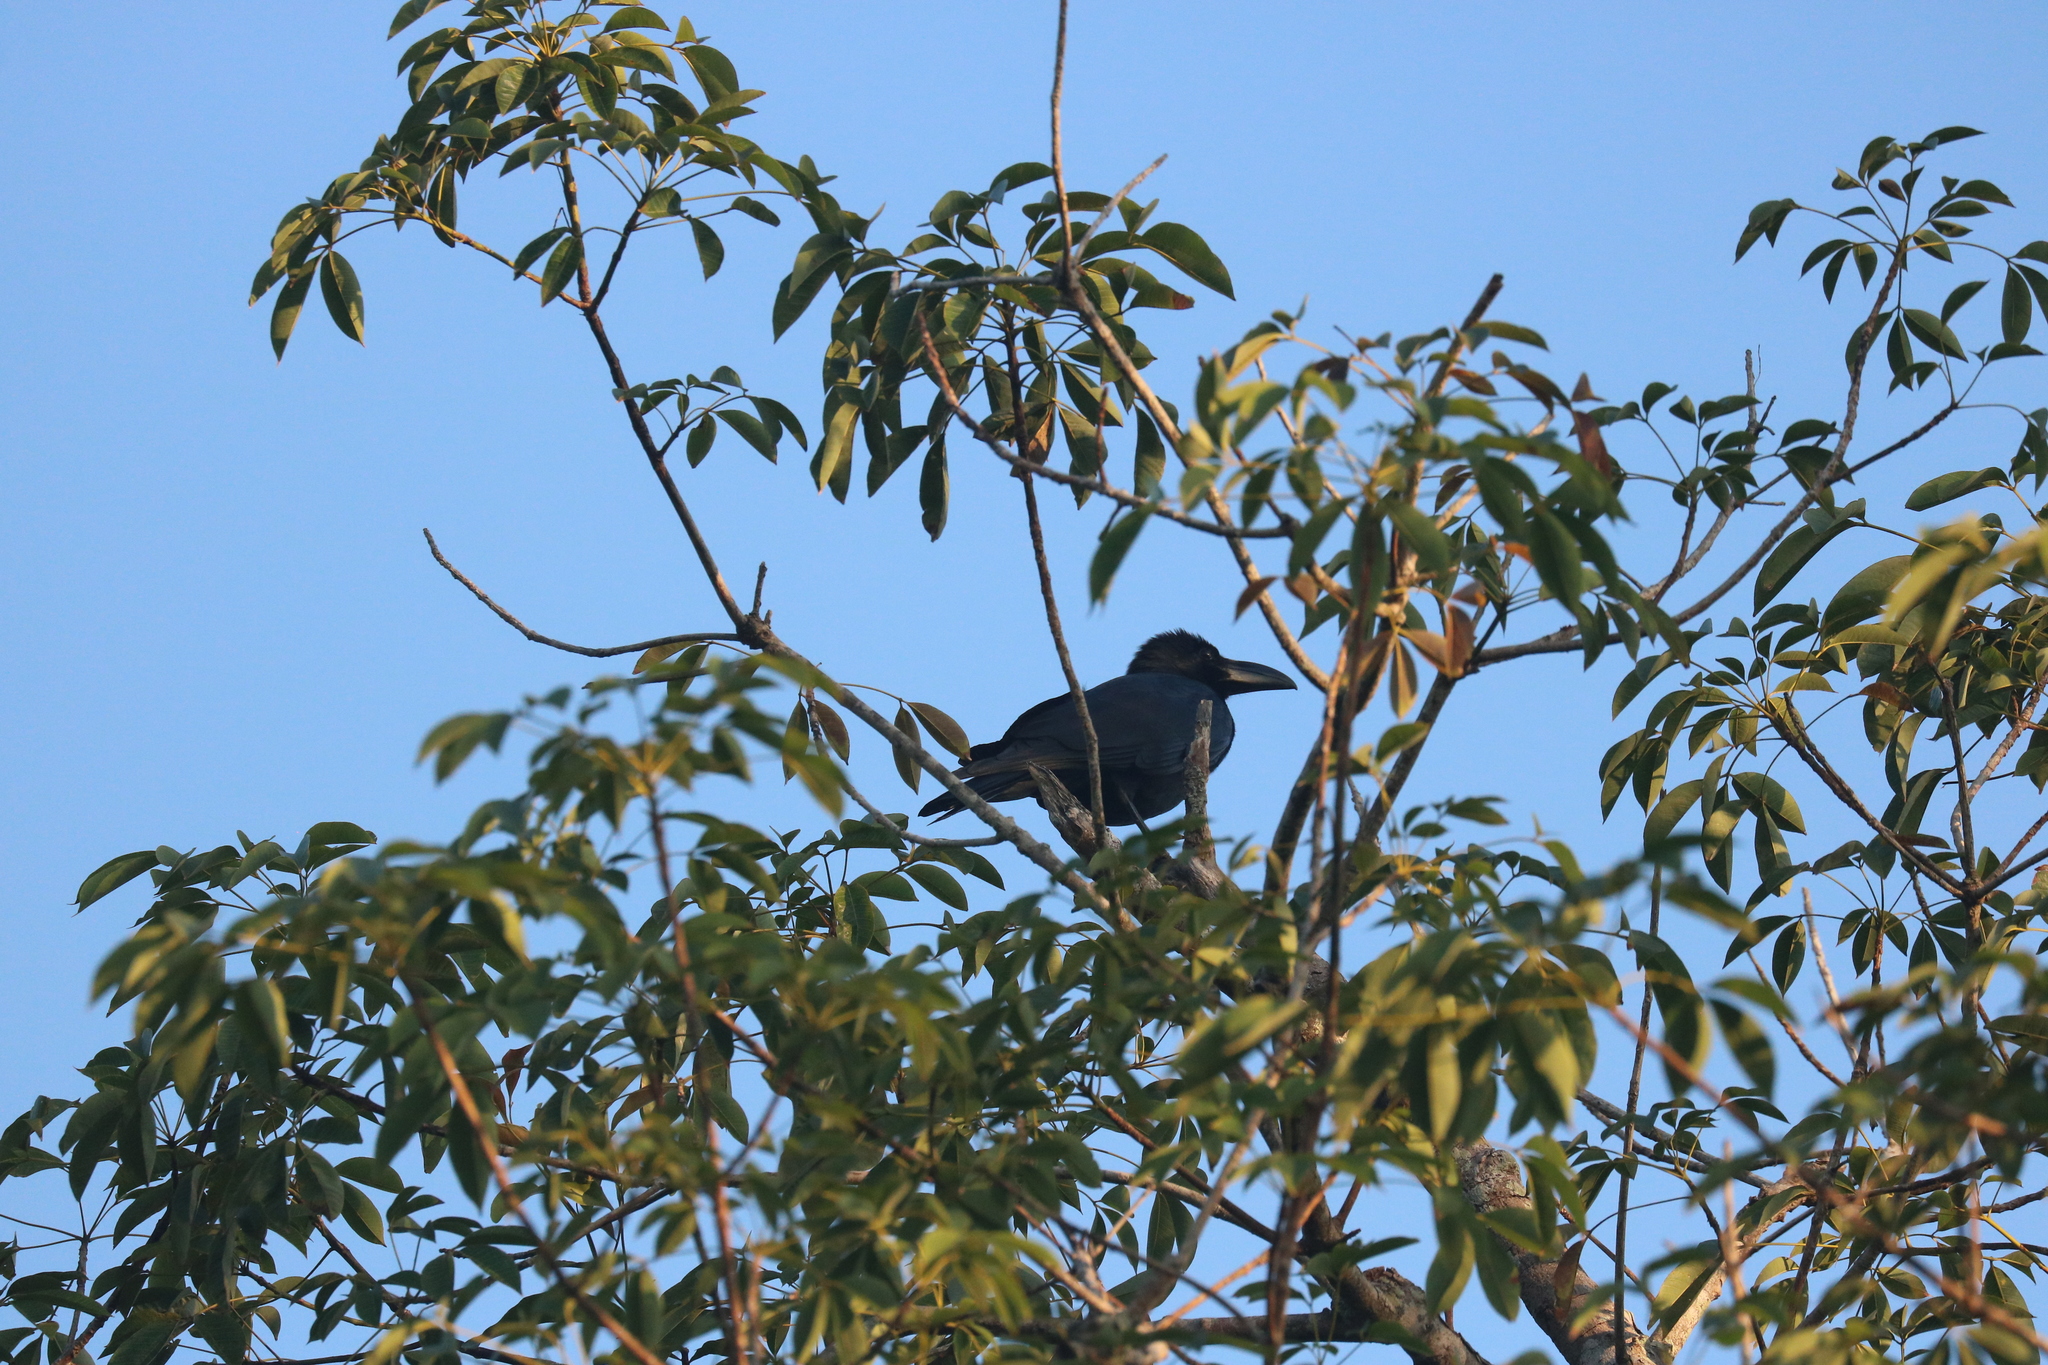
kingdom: Animalia
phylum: Chordata
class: Aves
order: Passeriformes
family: Corvidae
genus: Corvus
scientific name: Corvus macrorhynchos
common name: Large-billed crow
